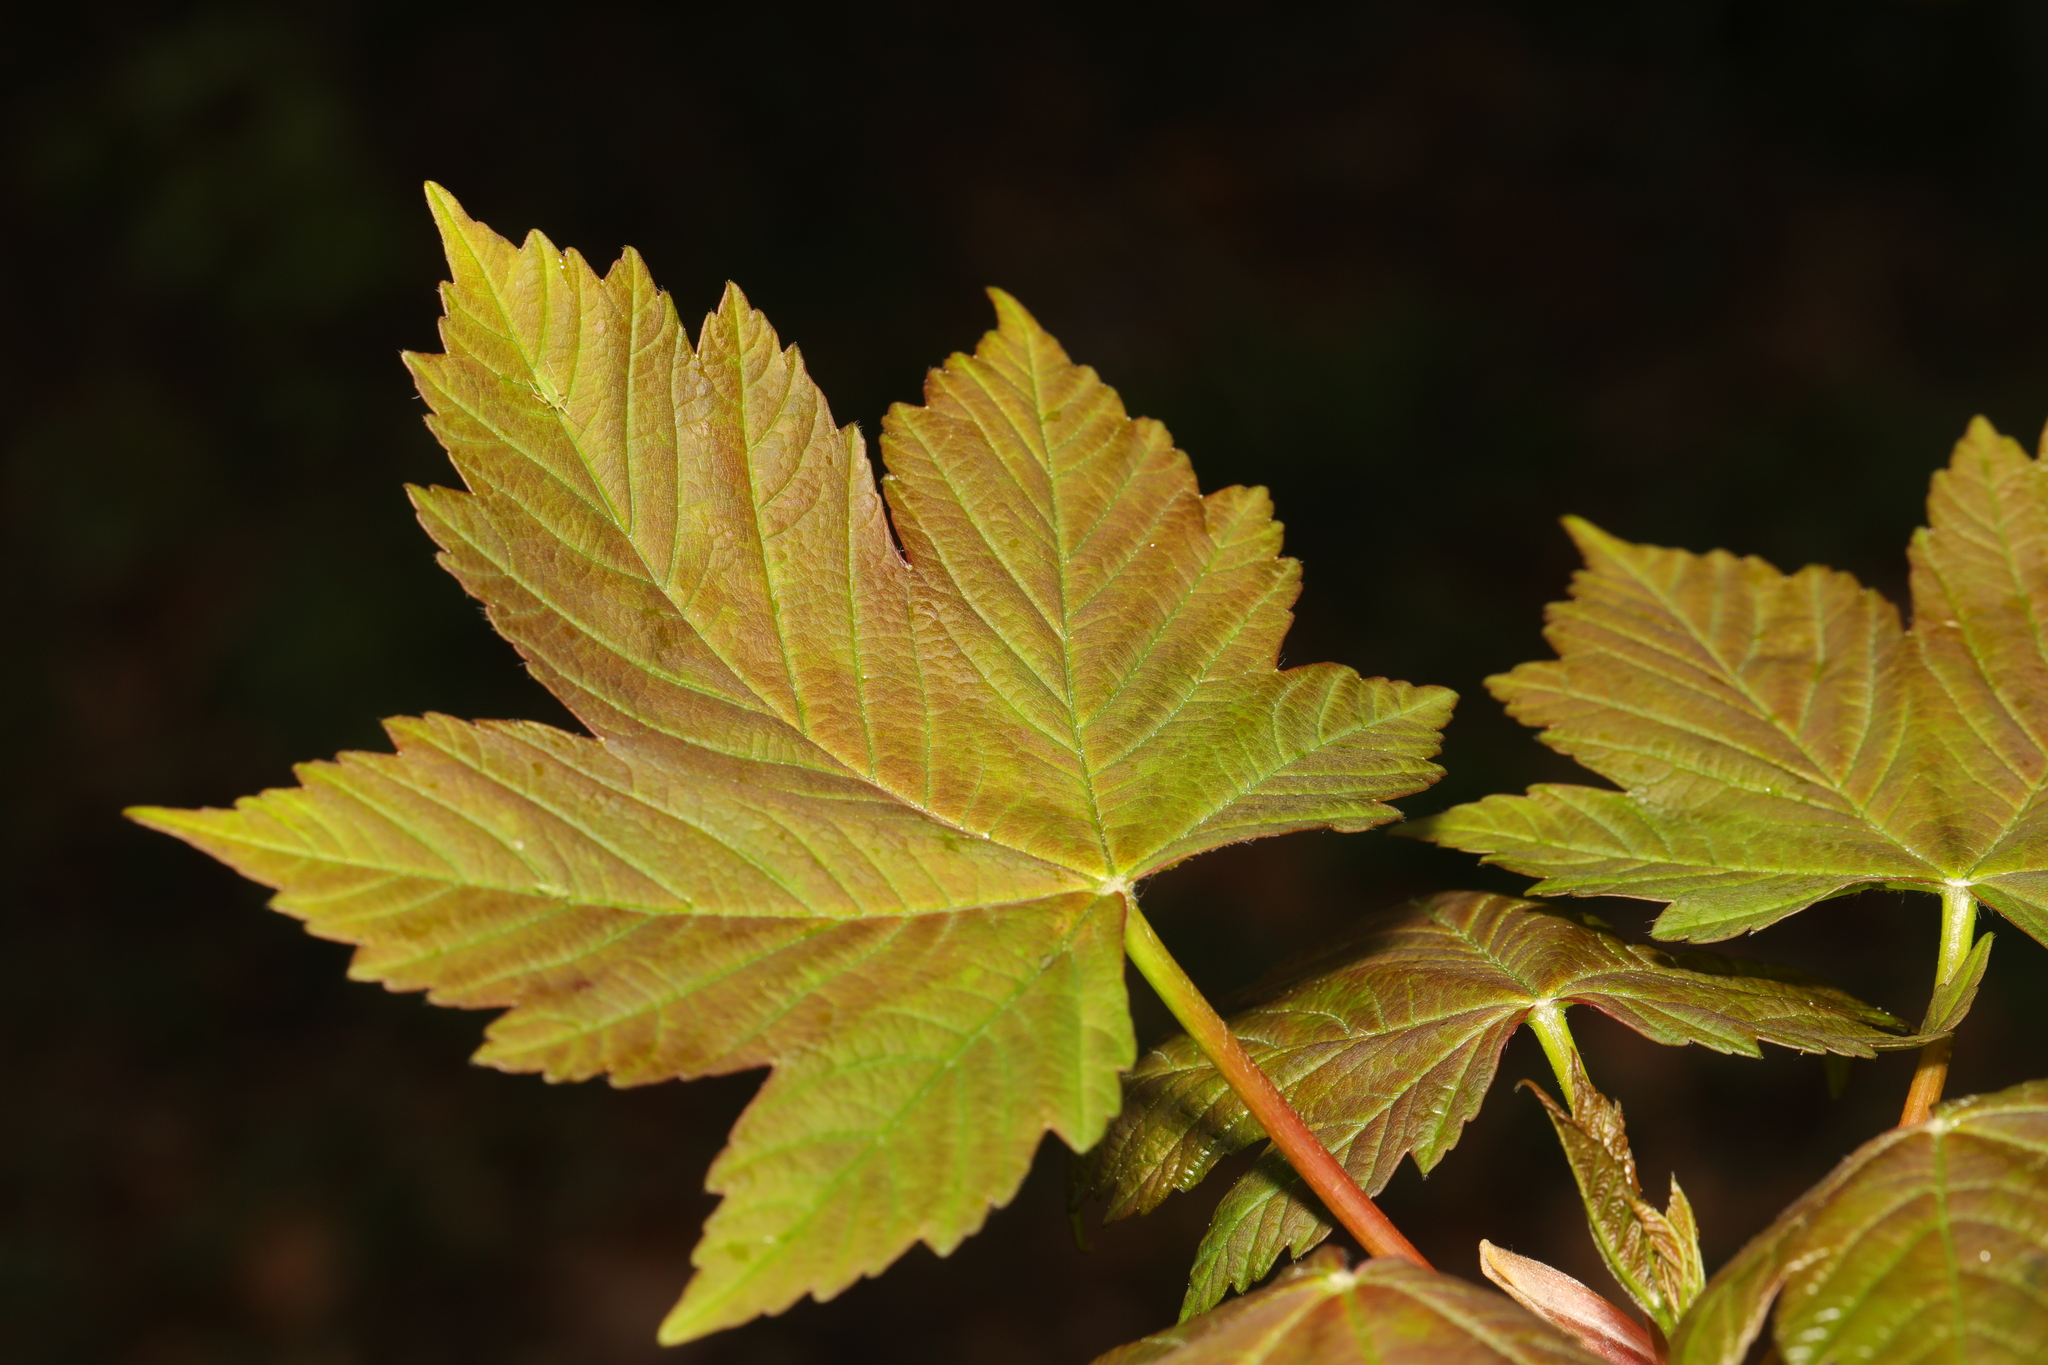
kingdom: Plantae
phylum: Tracheophyta
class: Magnoliopsida
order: Sapindales
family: Sapindaceae
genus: Acer
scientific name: Acer pseudoplatanus
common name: Sycamore
